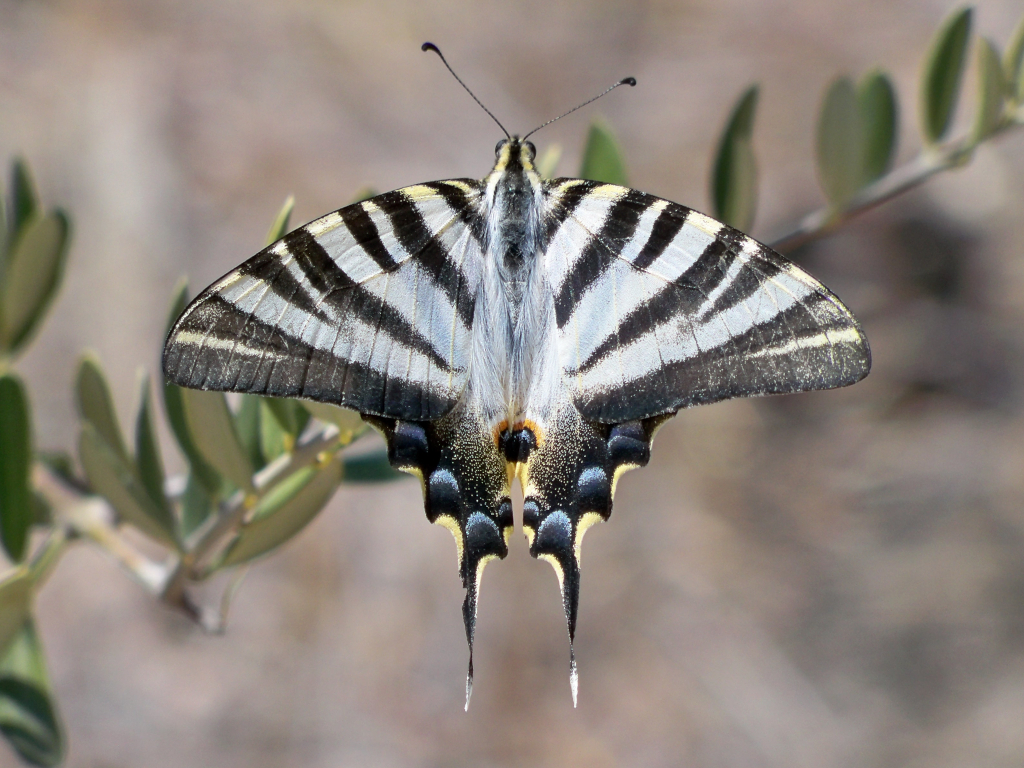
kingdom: Animalia
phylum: Arthropoda
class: Insecta
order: Lepidoptera
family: Papilionidae
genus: Iphiclides
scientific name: Iphiclides feisthamelii
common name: Iberian scarce swallowtail
